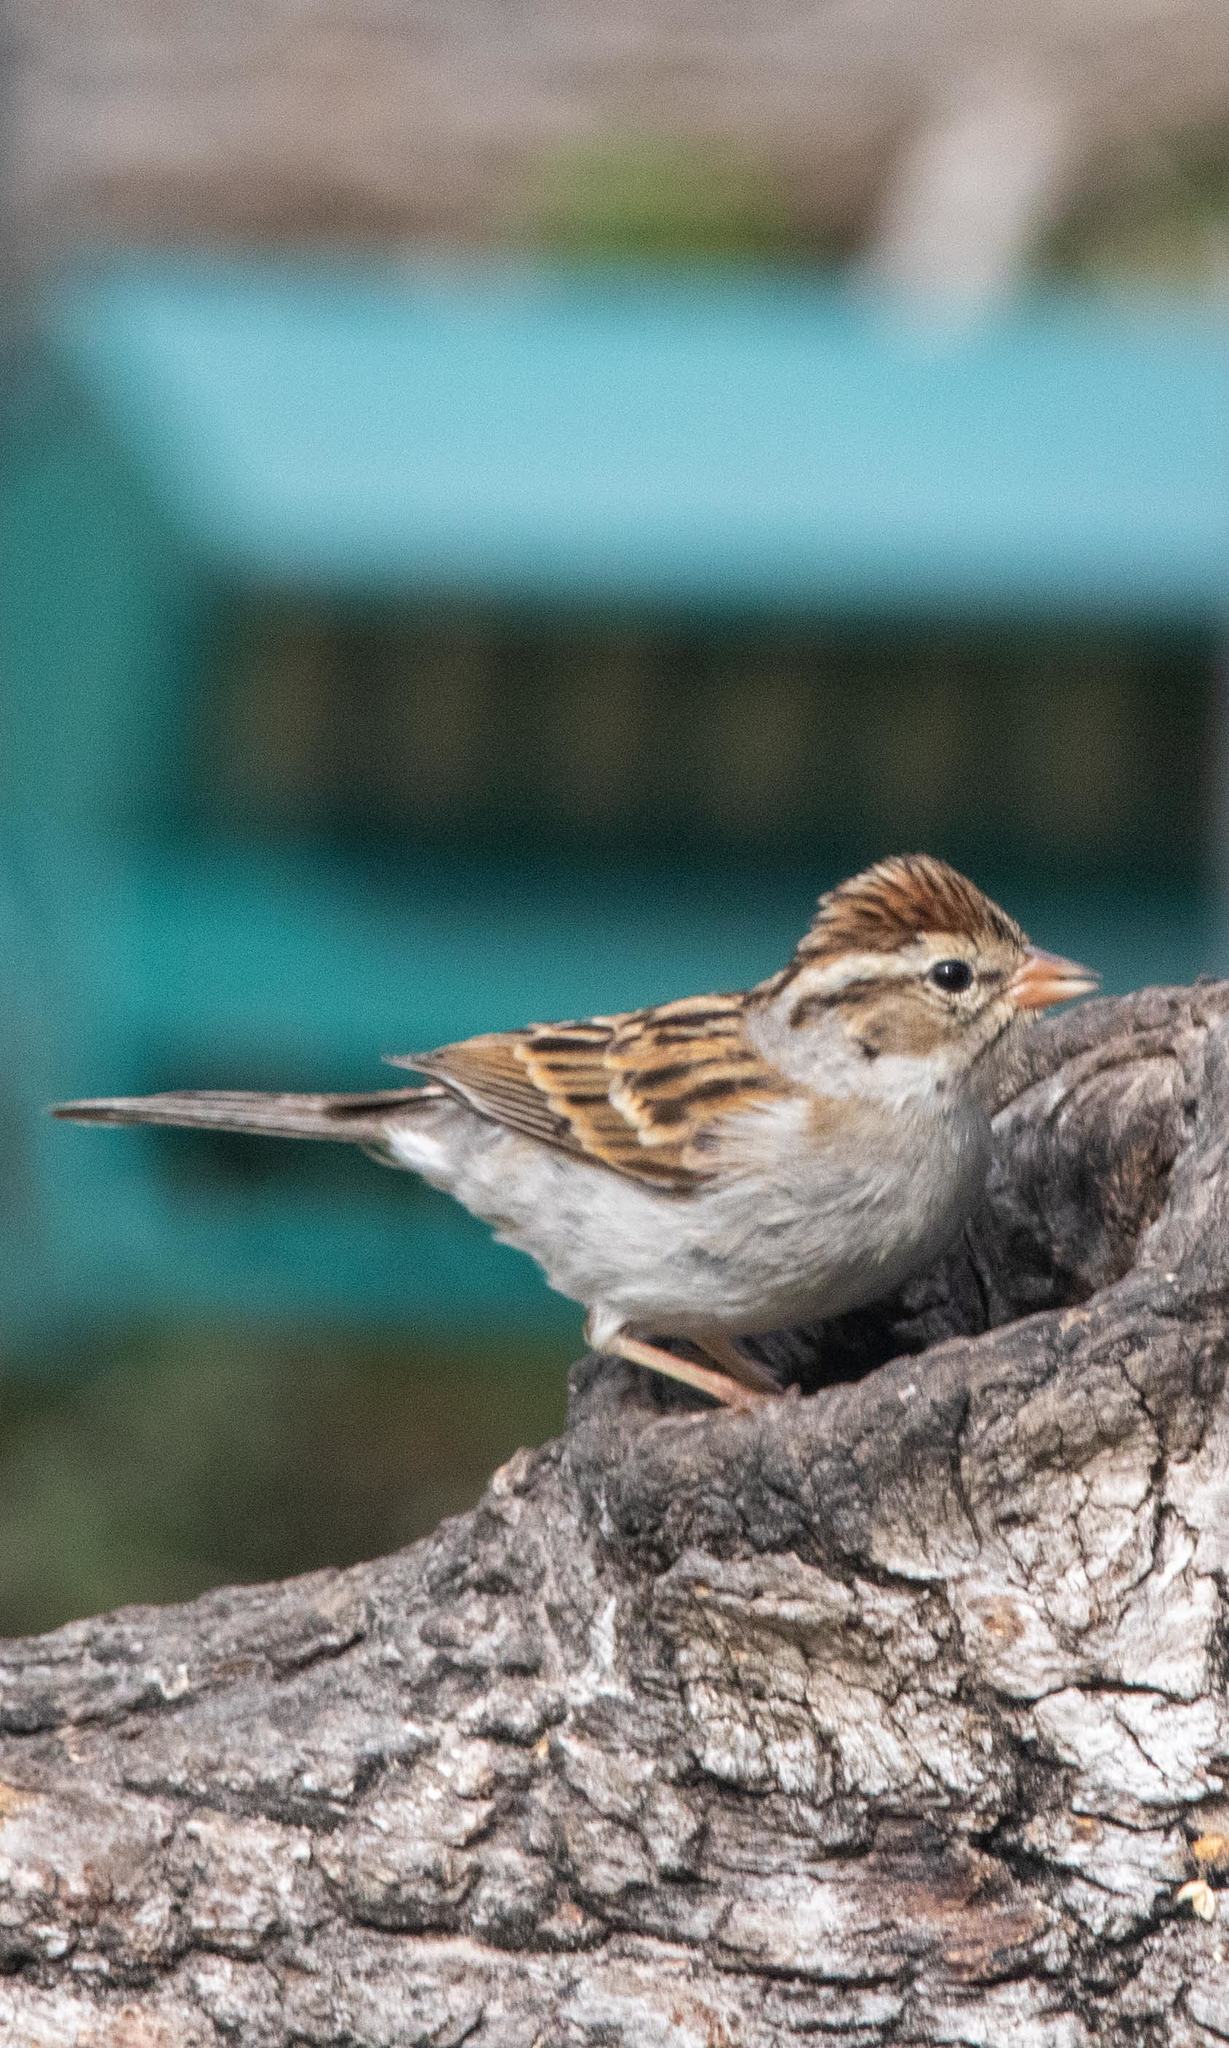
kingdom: Animalia
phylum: Chordata
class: Aves
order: Passeriformes
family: Passerellidae
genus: Spizella
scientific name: Spizella passerina
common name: Chipping sparrow
